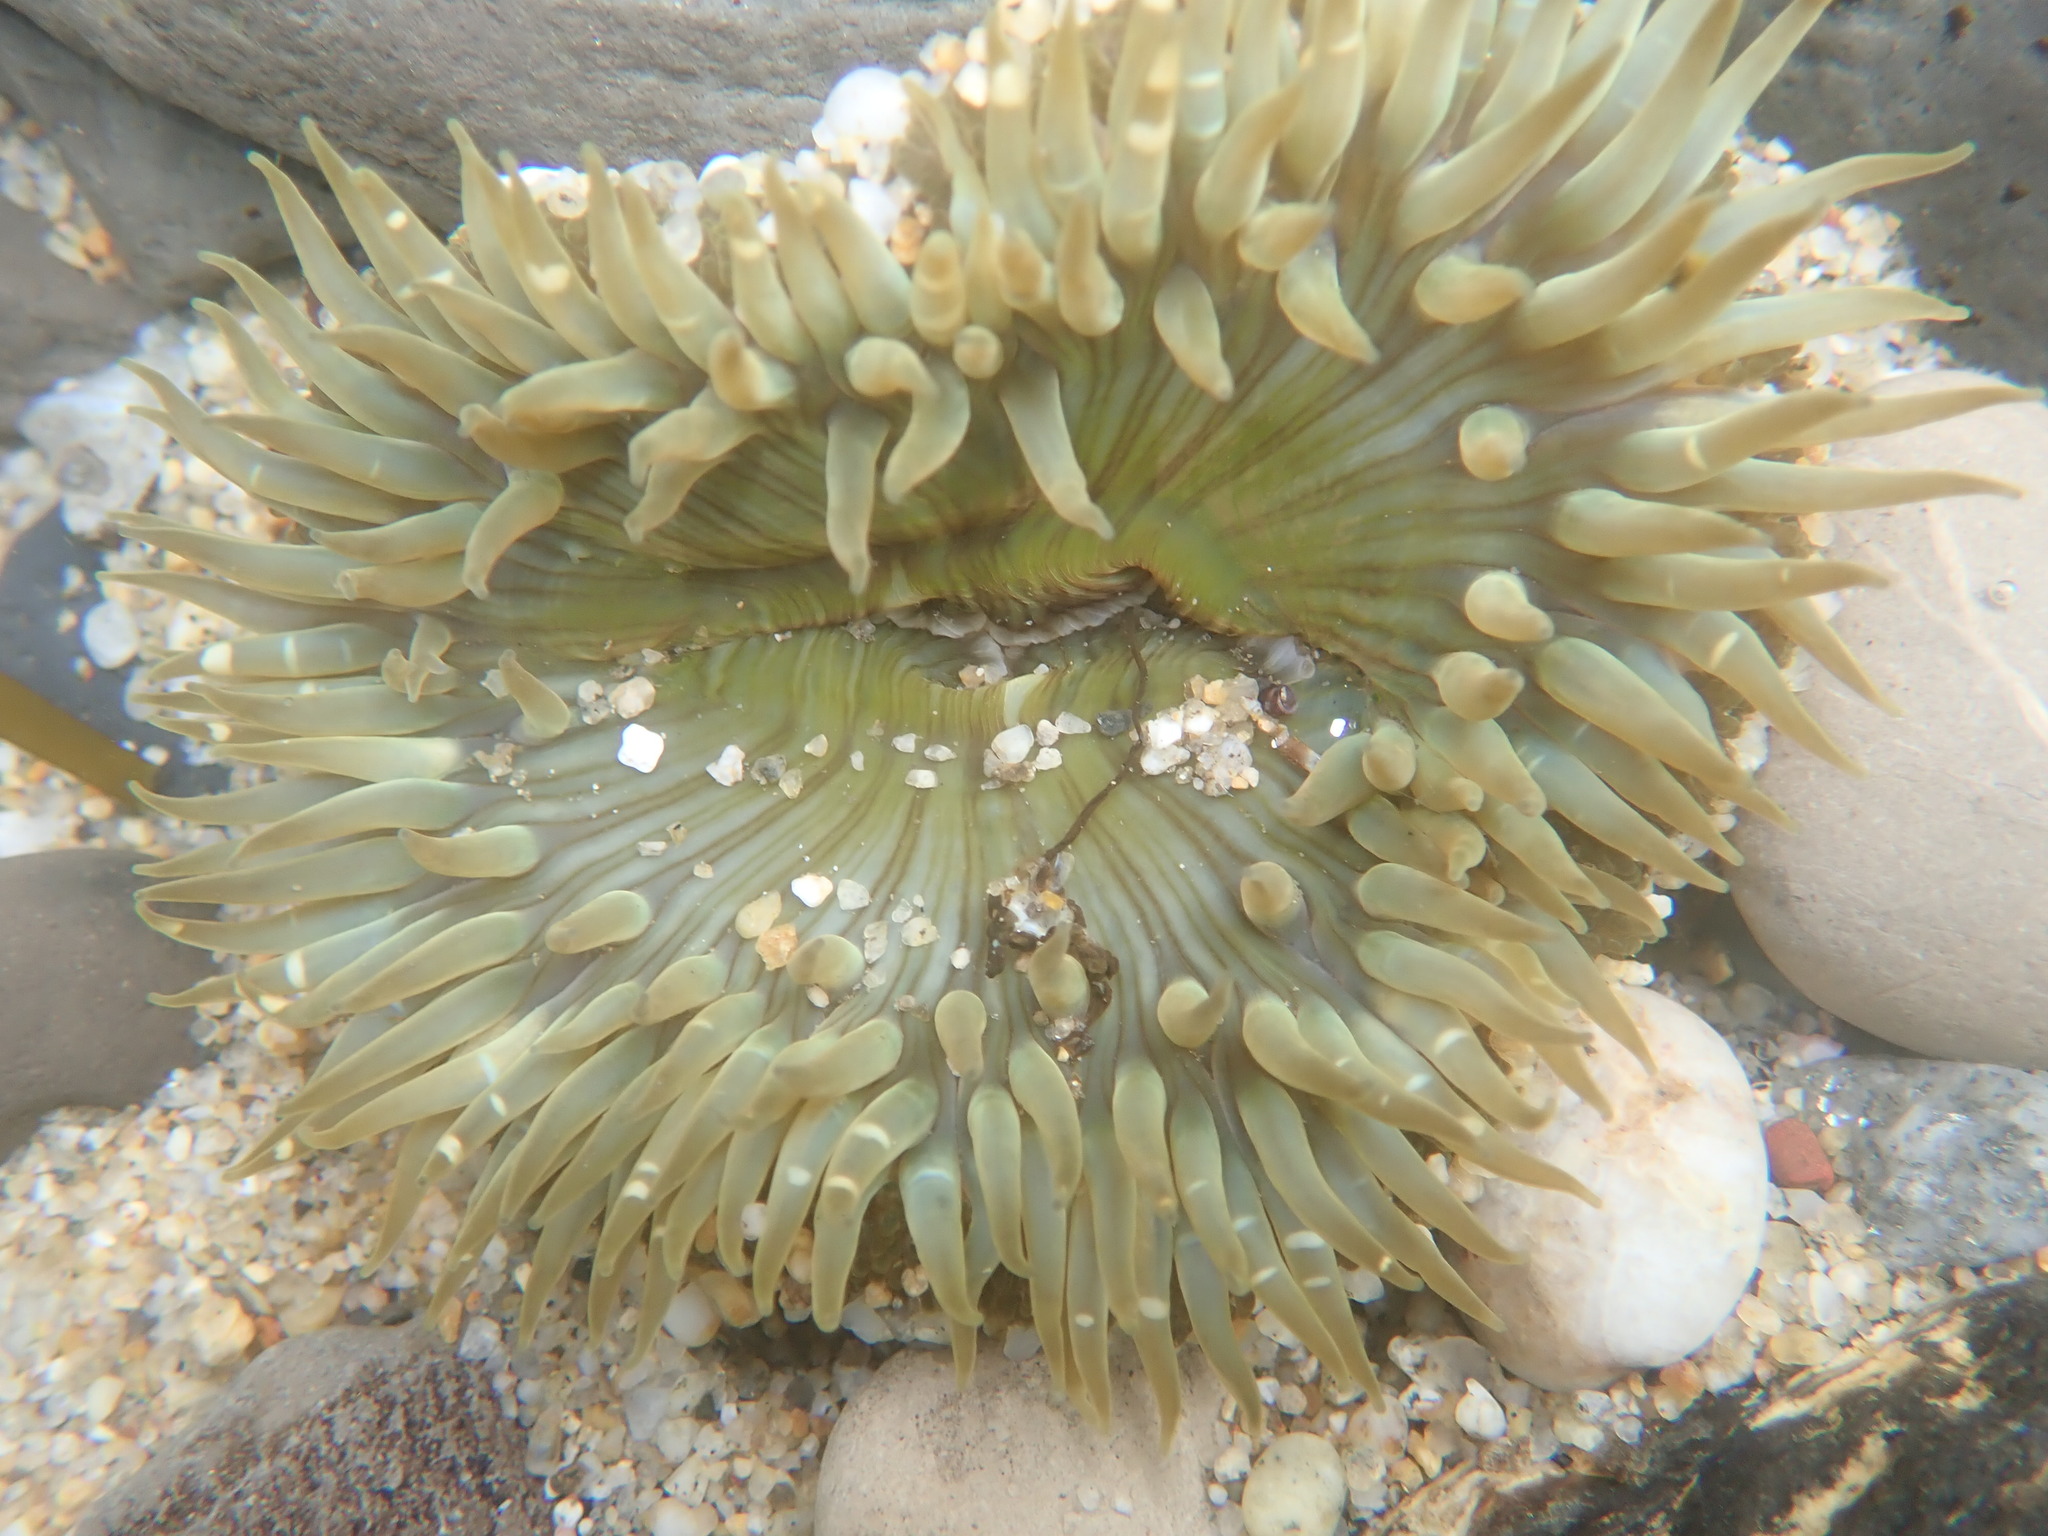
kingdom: Animalia
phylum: Cnidaria
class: Anthozoa
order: Actiniaria
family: Actiniidae
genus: Anthopleura
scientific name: Anthopleura sola
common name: Sun anemone
